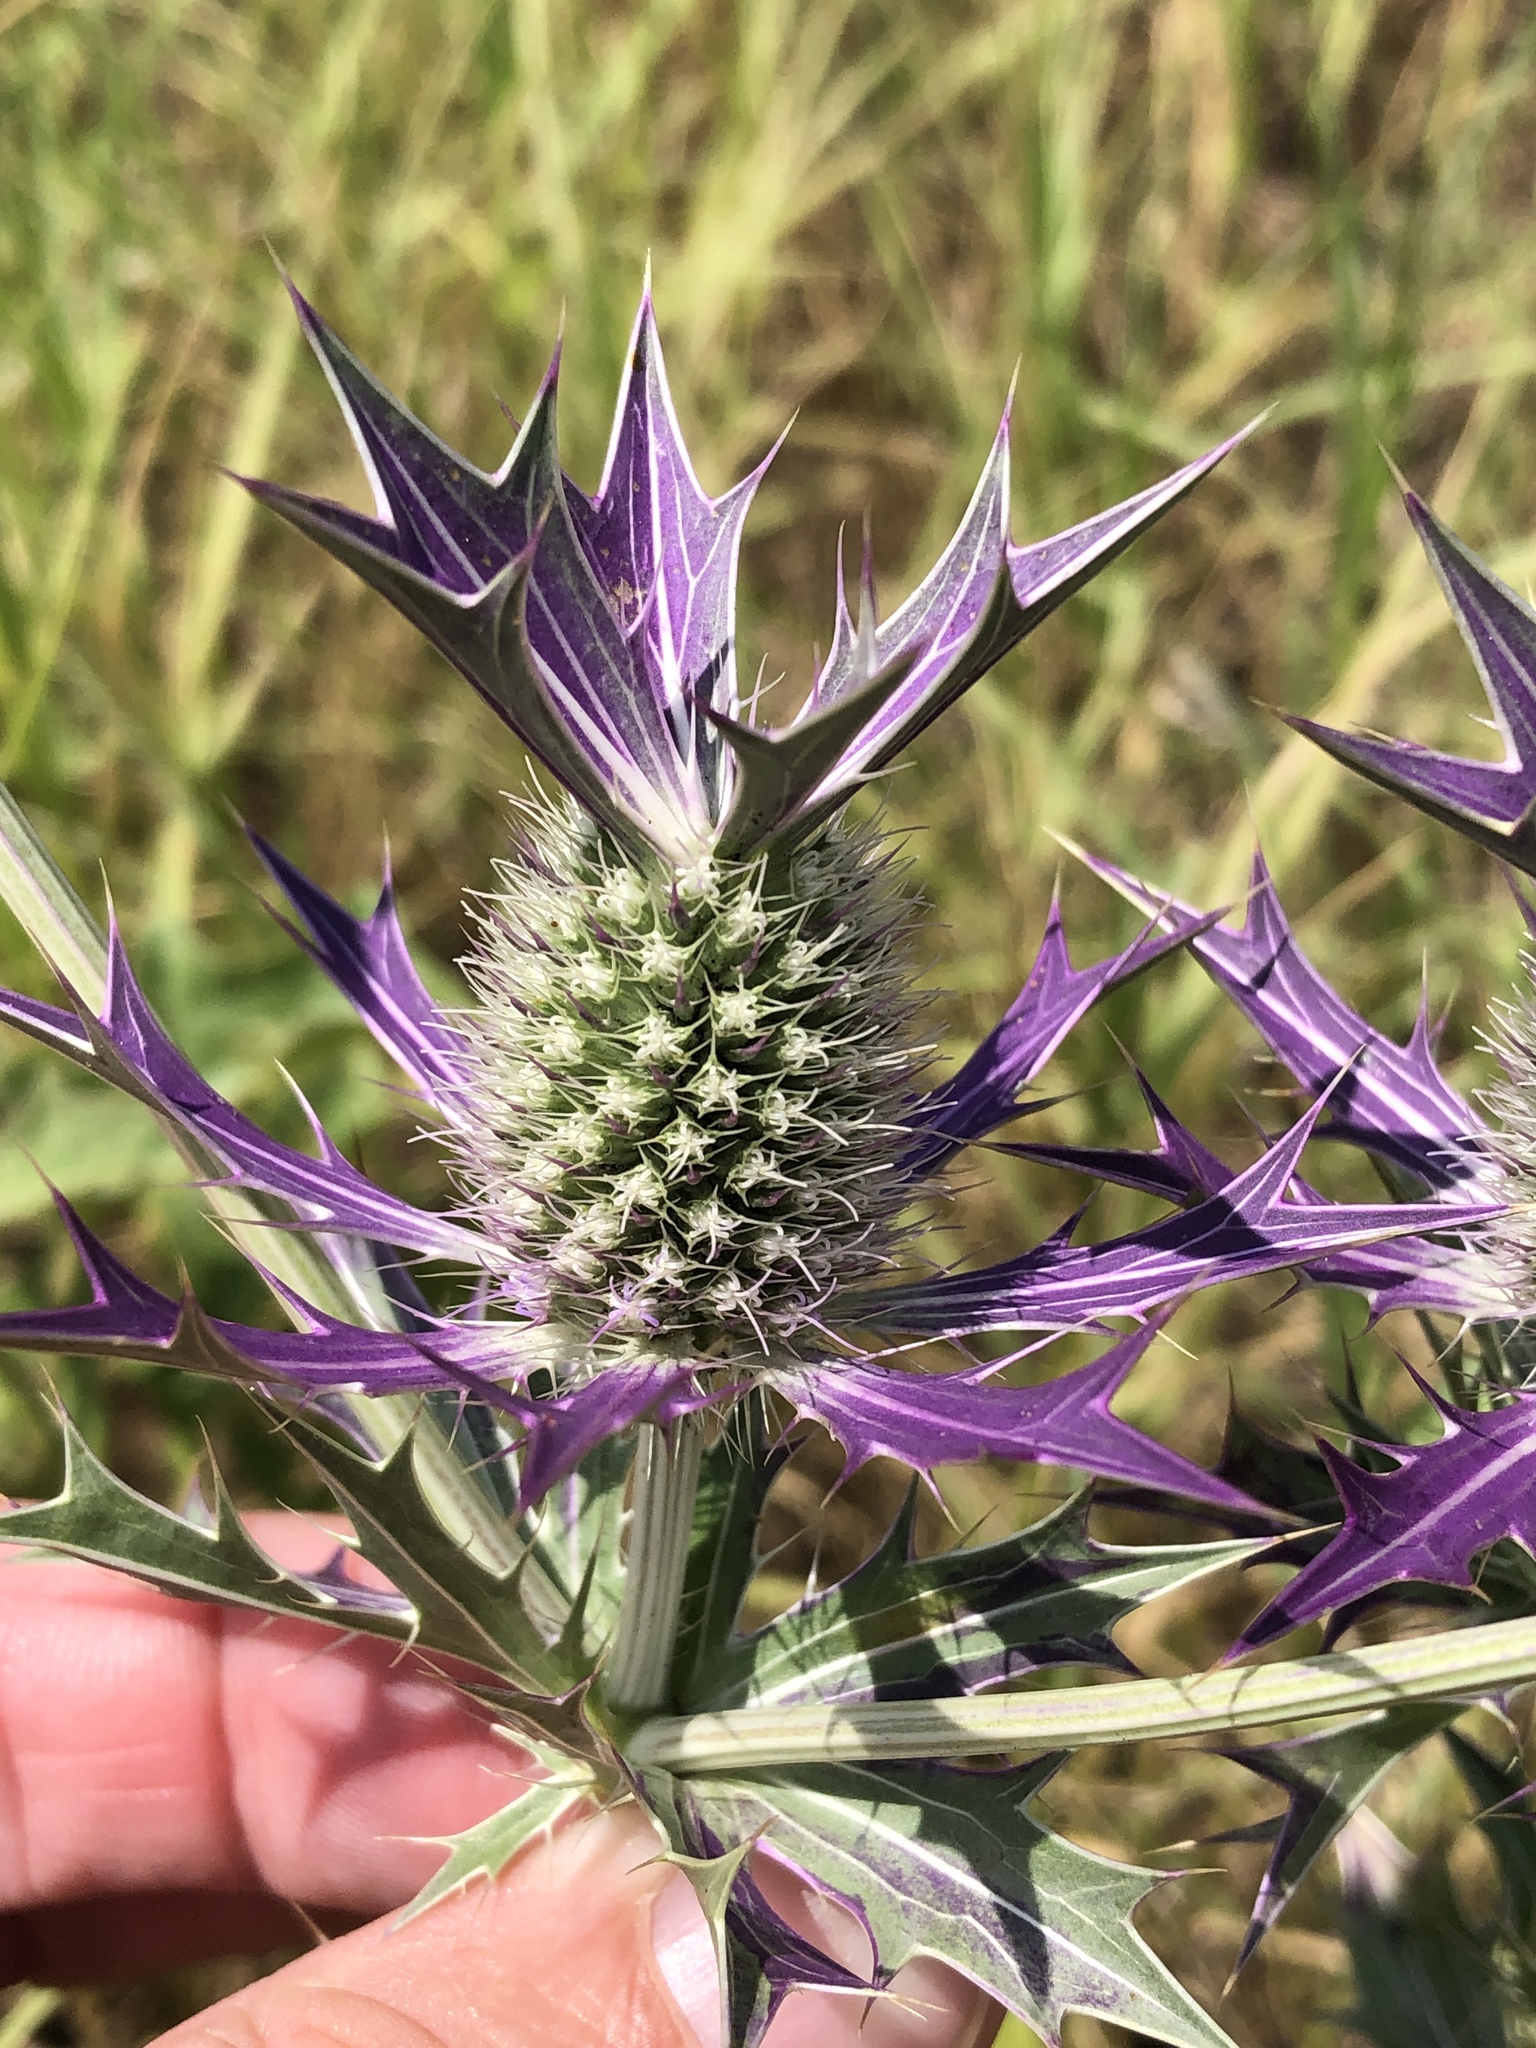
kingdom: Plantae
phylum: Tracheophyta
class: Magnoliopsida
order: Apiales
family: Apiaceae
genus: Eryngium
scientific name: Eryngium leavenworthii
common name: Leavenworth's eryngo
